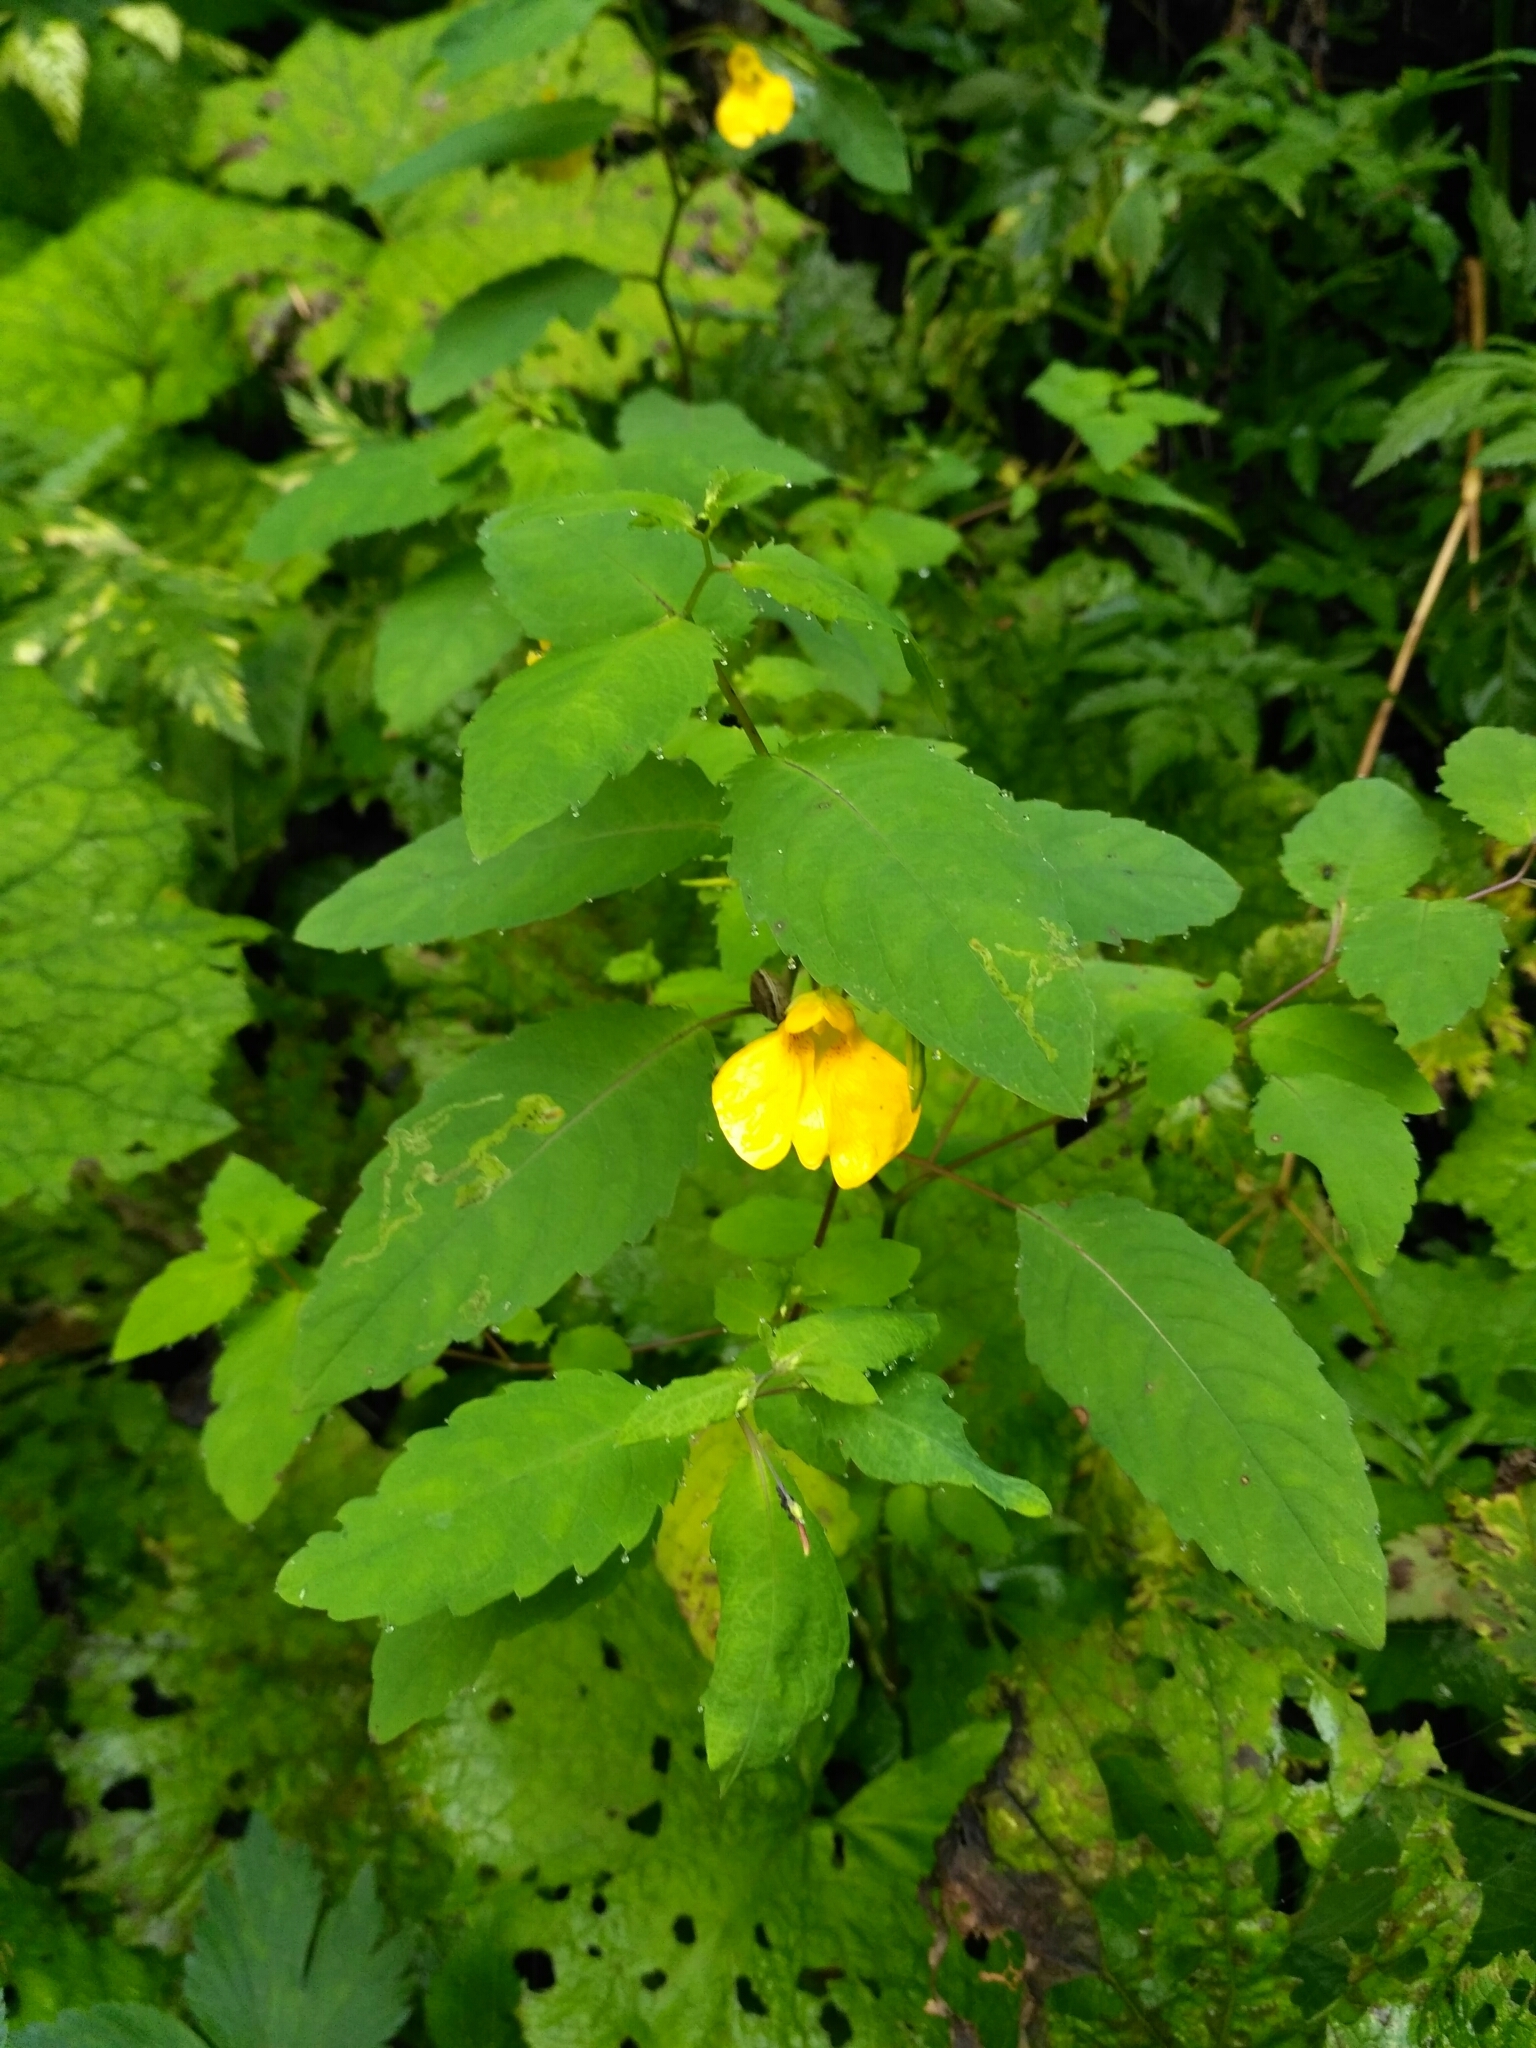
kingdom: Animalia
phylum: Arthropoda
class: Insecta
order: Diptera
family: Agromyzidae
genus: Phytoliriomyza
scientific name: Phytoliriomyza melampyga
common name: Jewelweed leaf-miner fly
